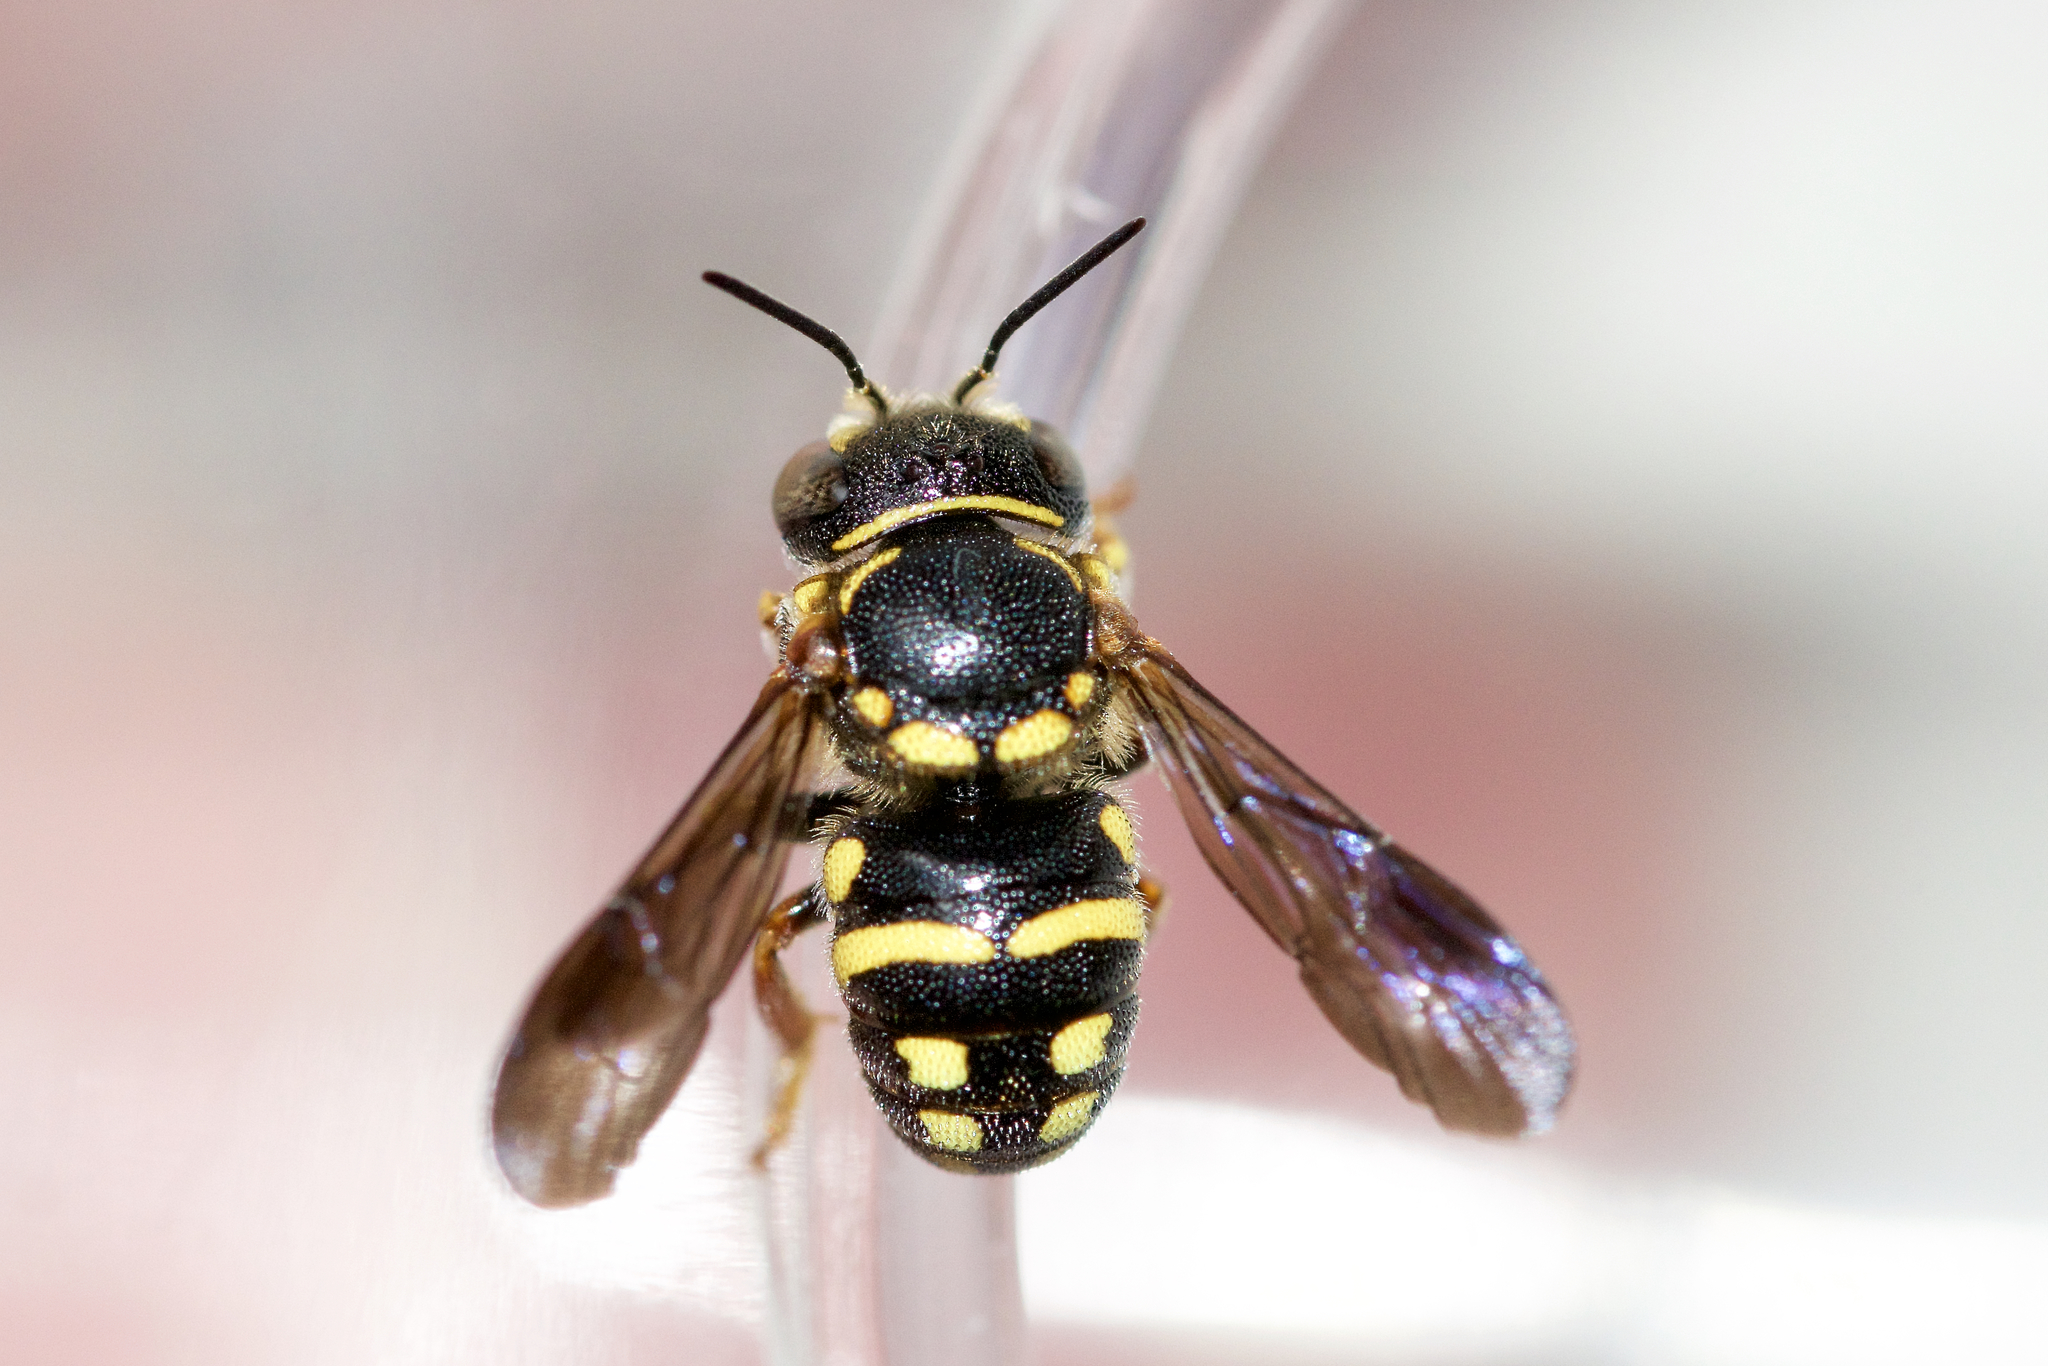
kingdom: Animalia
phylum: Arthropoda
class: Insecta
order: Hymenoptera
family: Megachilidae
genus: Anthidiellum
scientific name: Anthidiellum notatum
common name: Northern rotund-resin bee
